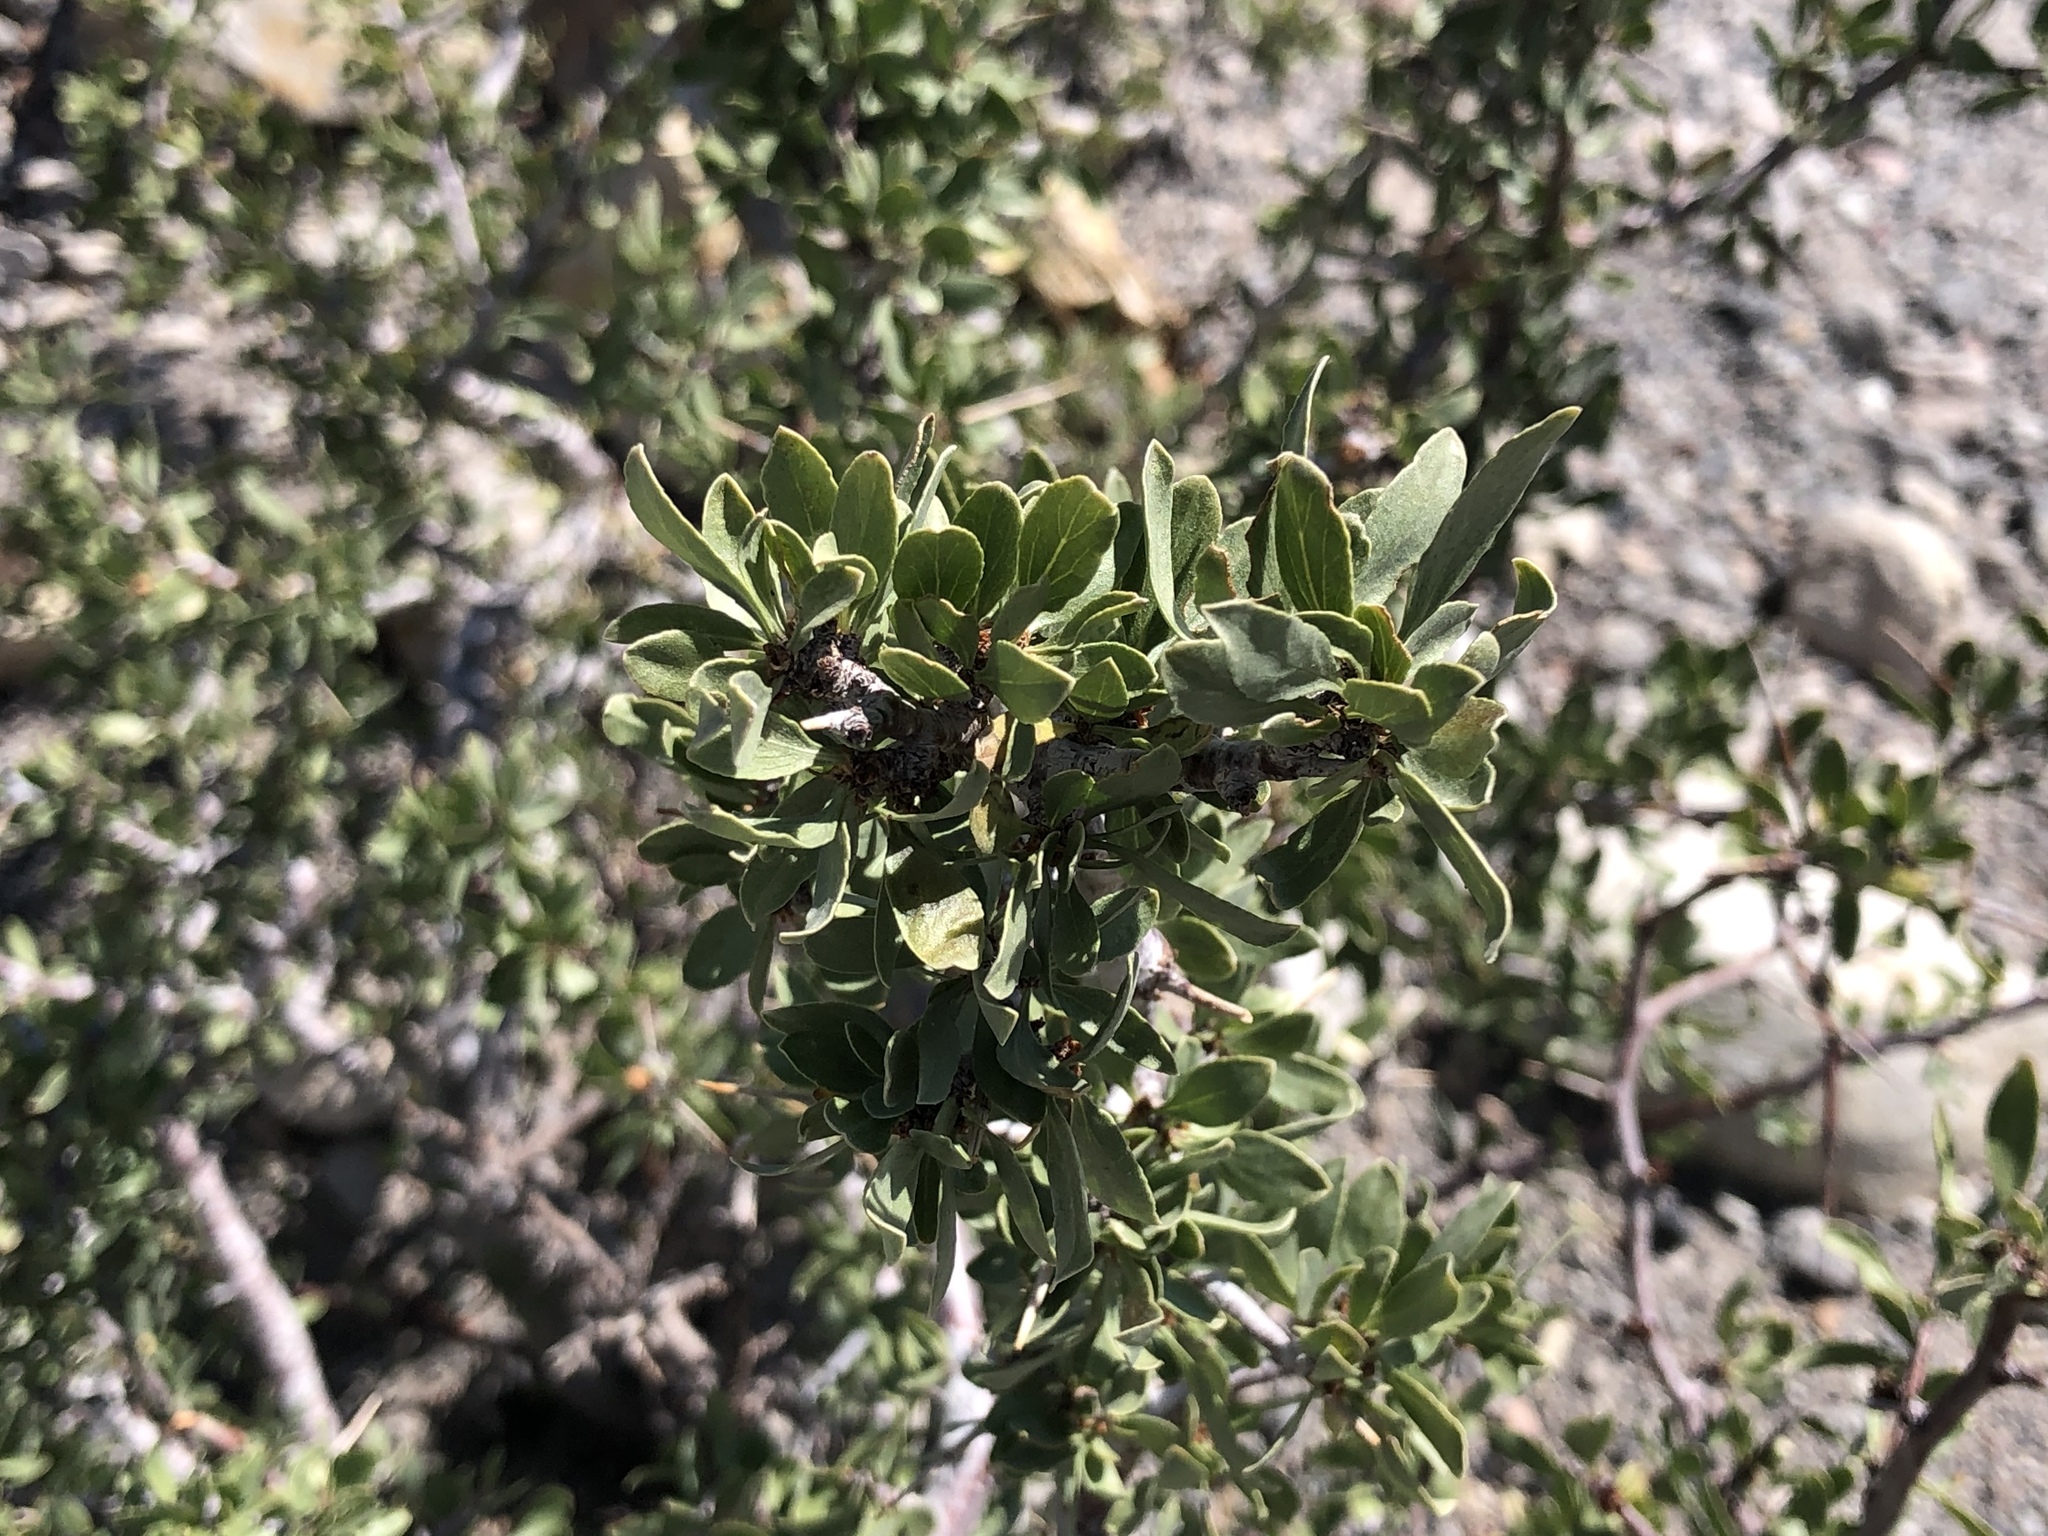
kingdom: Plantae
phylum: Tracheophyta
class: Magnoliopsida
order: Rosales
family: Rosaceae
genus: Prunus
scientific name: Prunus andersonii
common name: Desert peach
